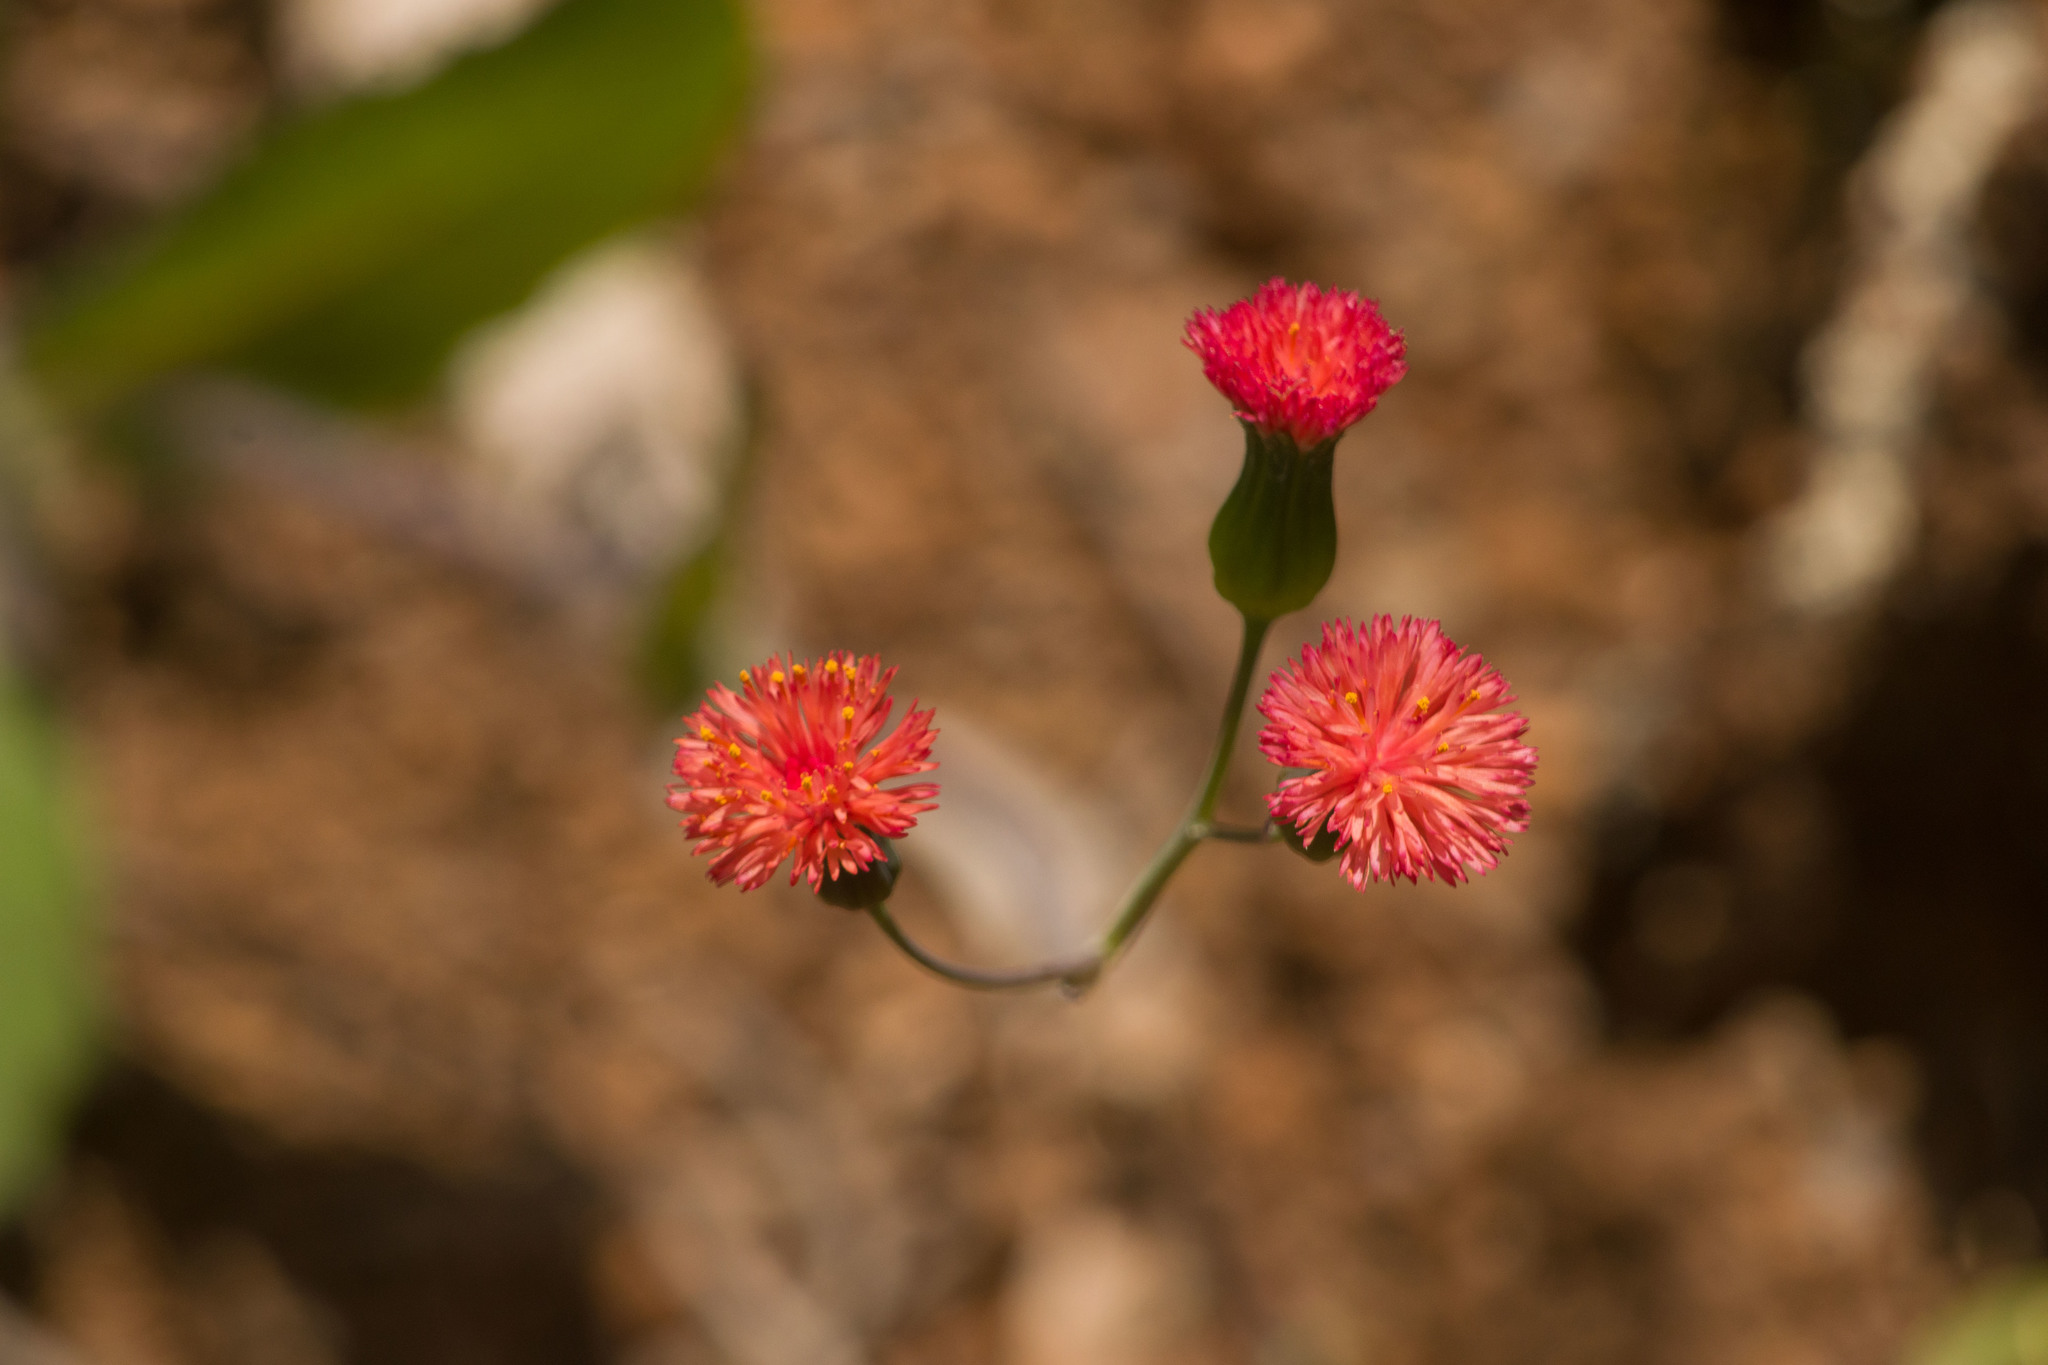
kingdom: Plantae
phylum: Tracheophyta
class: Magnoliopsida
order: Asterales
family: Asteraceae
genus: Emilia
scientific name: Emilia fosbergii
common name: Florida tasselflower
